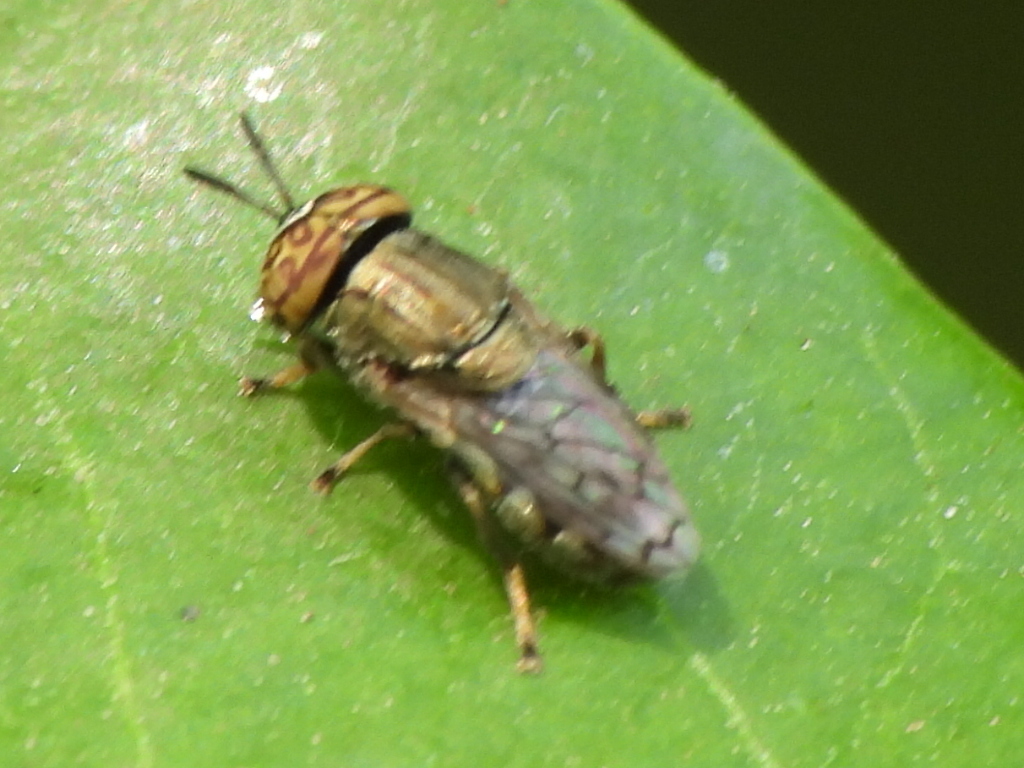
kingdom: Animalia
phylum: Arthropoda
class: Insecta
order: Diptera
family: Syrphidae
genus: Orthonevra
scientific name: Orthonevra nitida
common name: Wavy mucksucker
